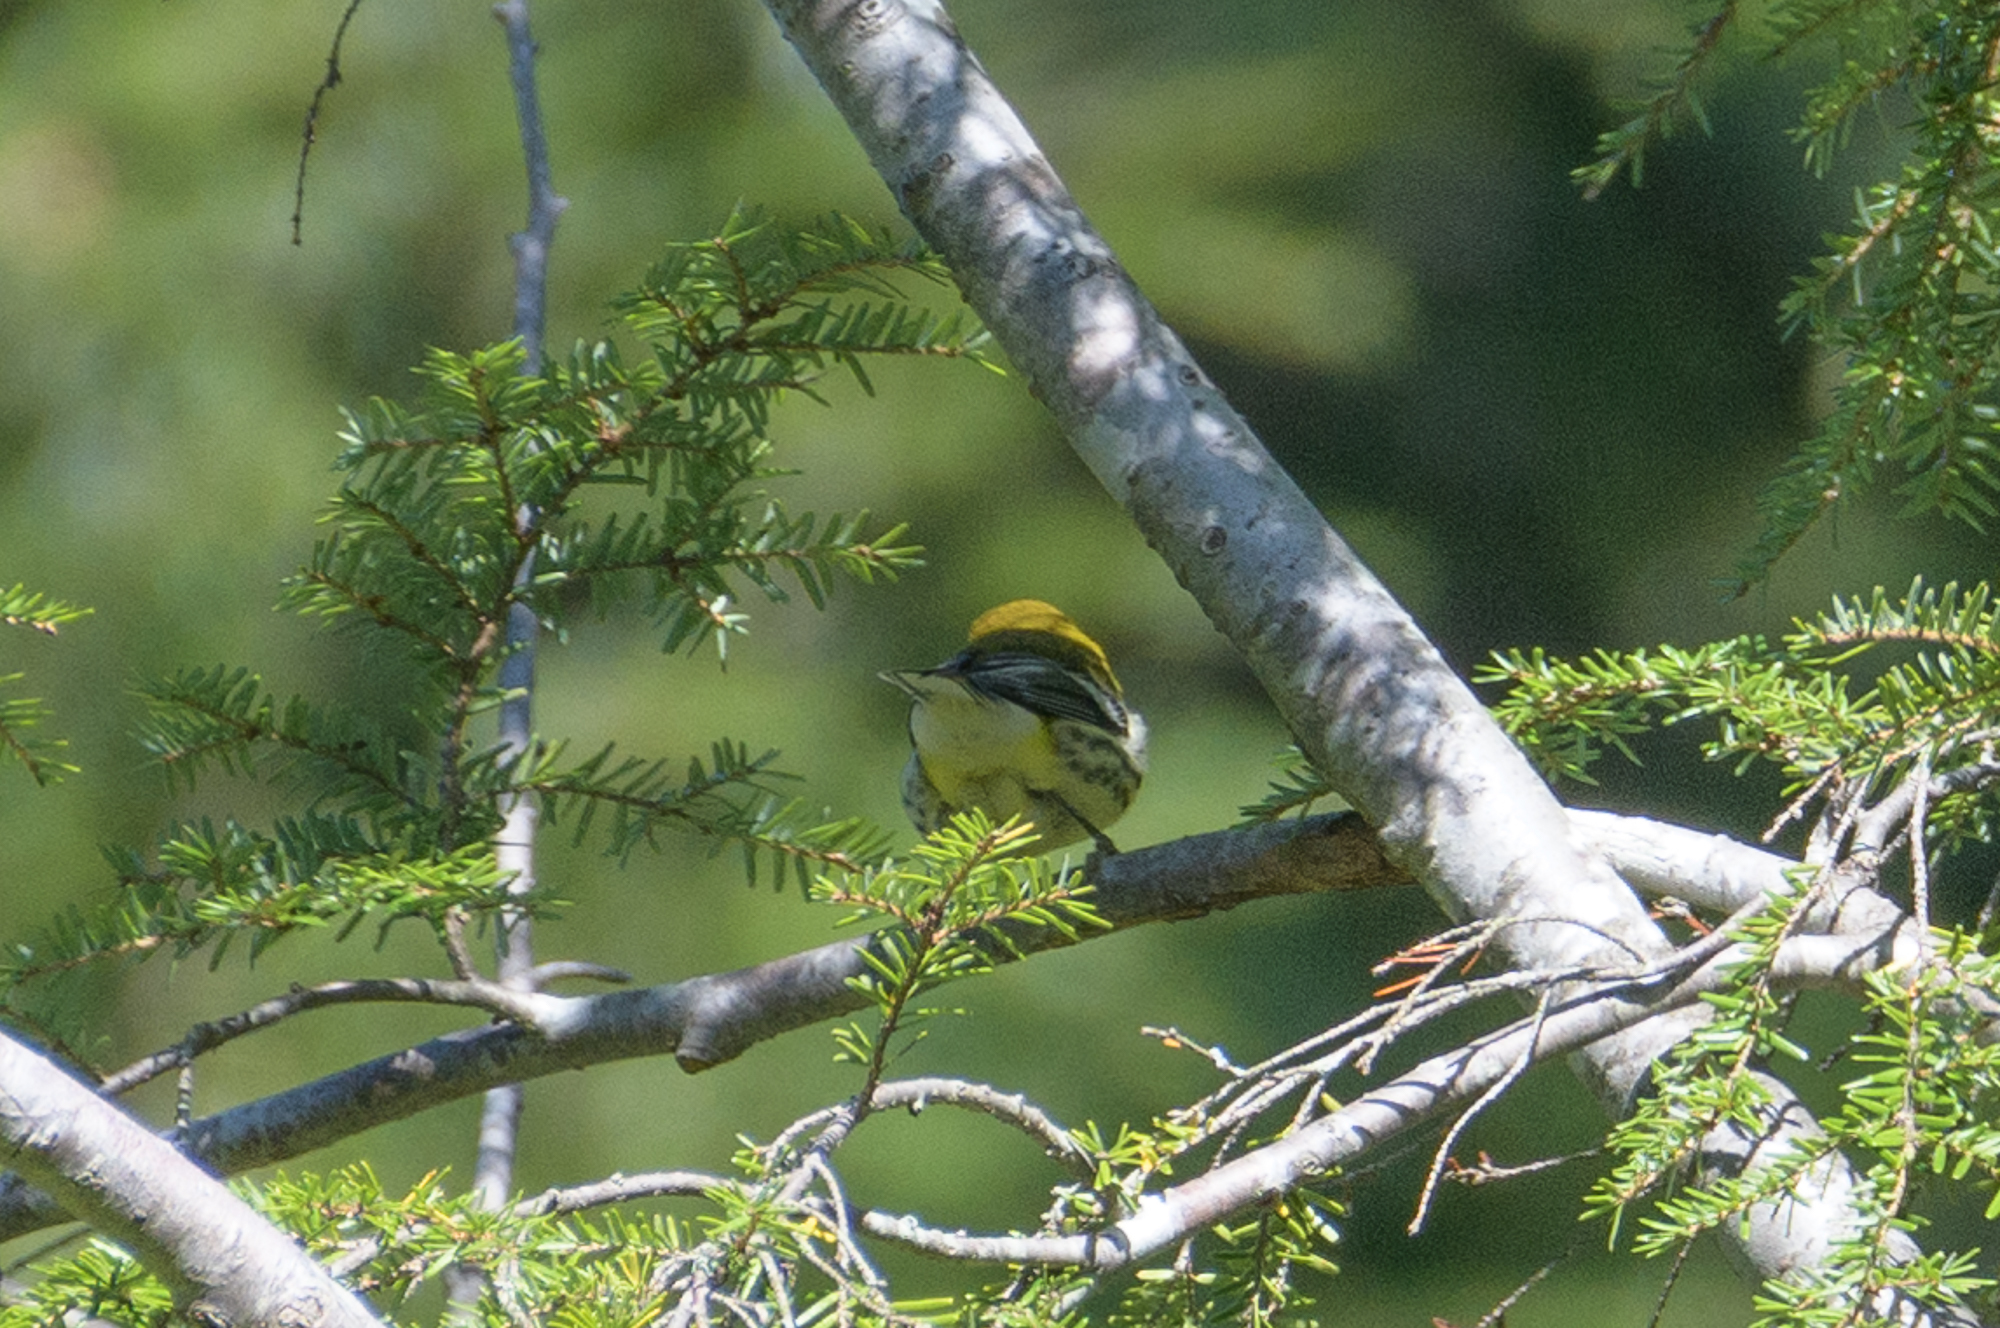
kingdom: Animalia
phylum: Chordata
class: Aves
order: Passeriformes
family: Parulidae
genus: Setophaga
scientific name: Setophaga virens
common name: Black-throated green warbler
